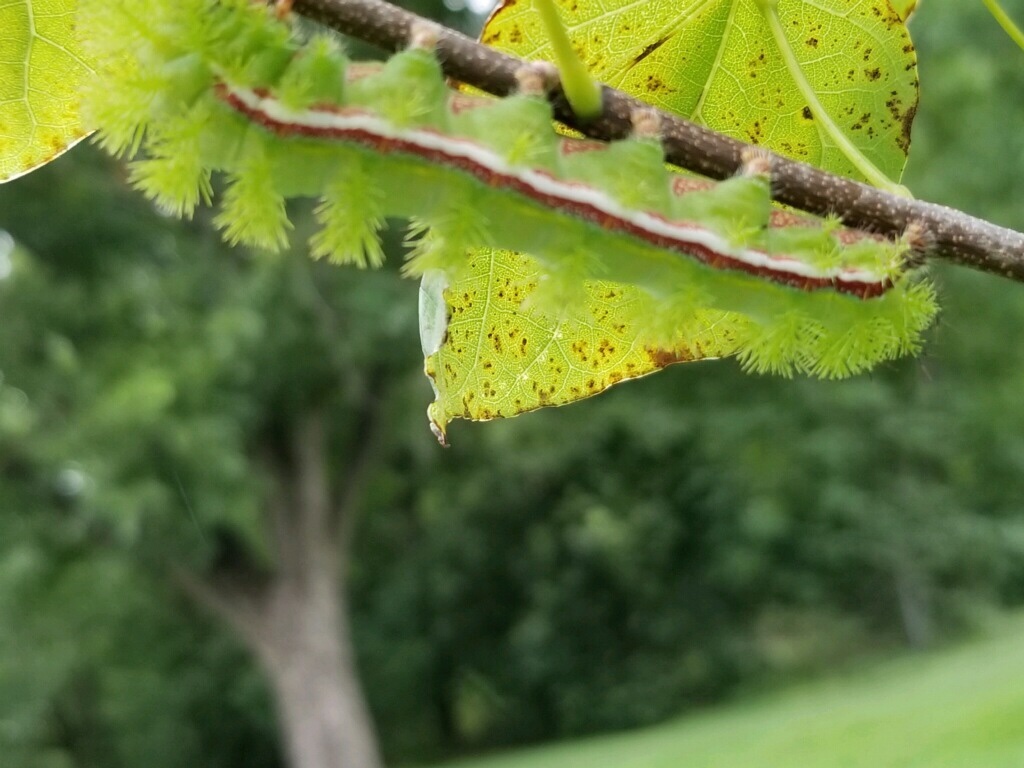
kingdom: Animalia
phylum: Arthropoda
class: Insecta
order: Lepidoptera
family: Saturniidae
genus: Automeris
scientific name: Automeris io
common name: Io moth
